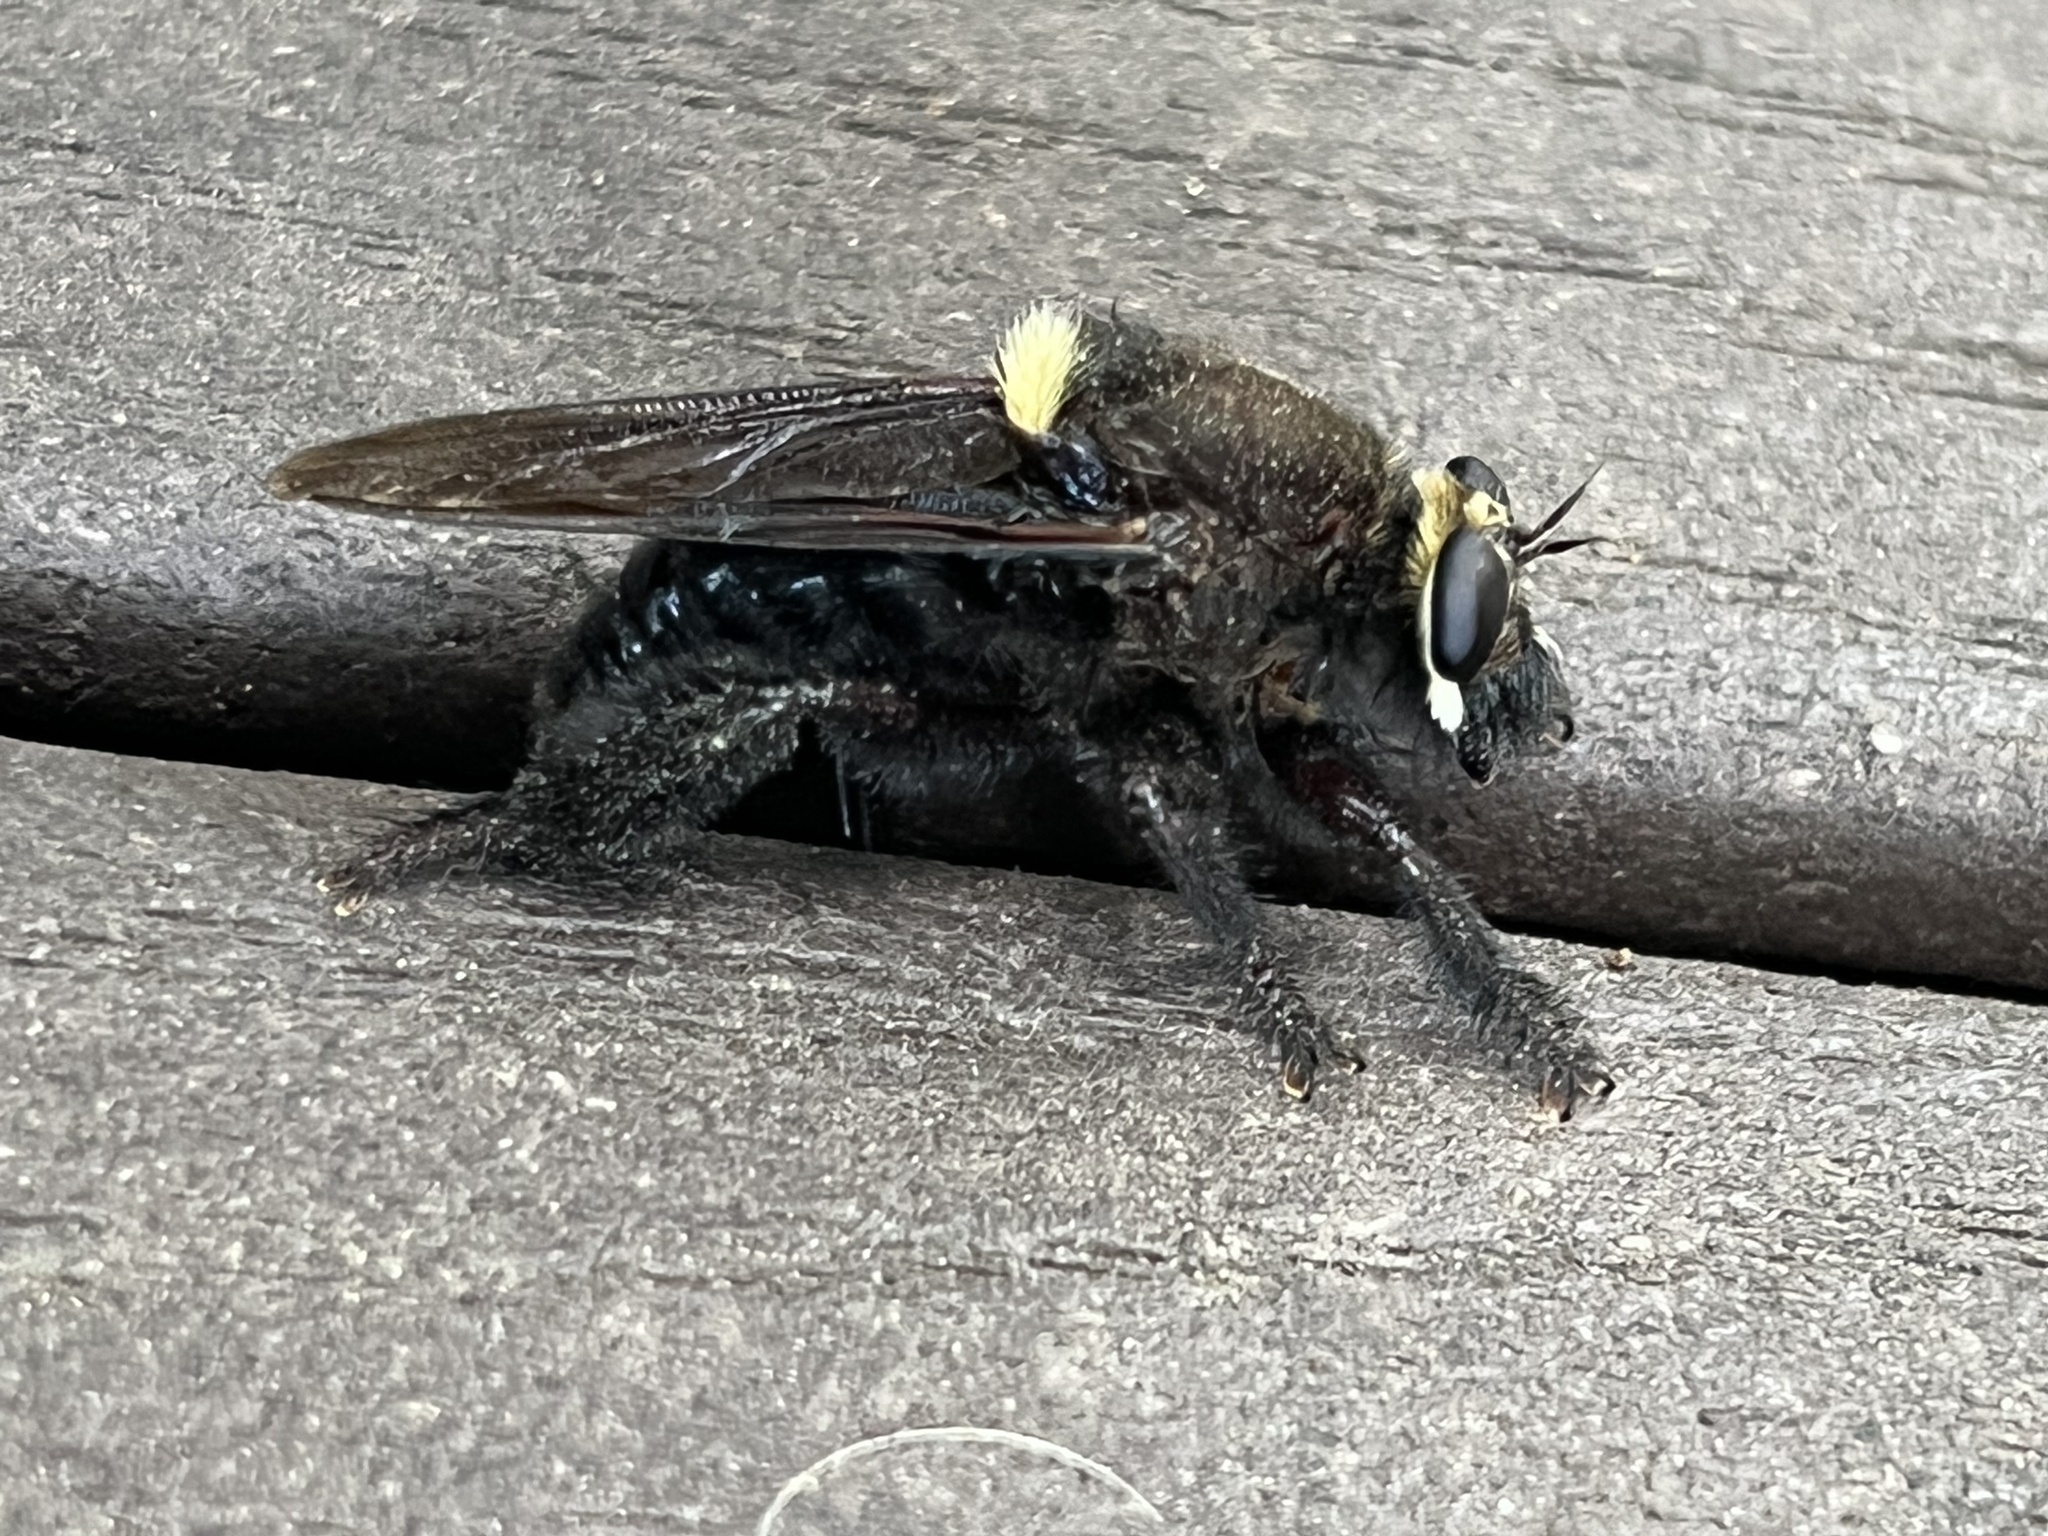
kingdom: Animalia
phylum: Arthropoda
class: Insecta
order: Diptera
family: Asilidae
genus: Mallophora
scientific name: Mallophora leschenaultii
